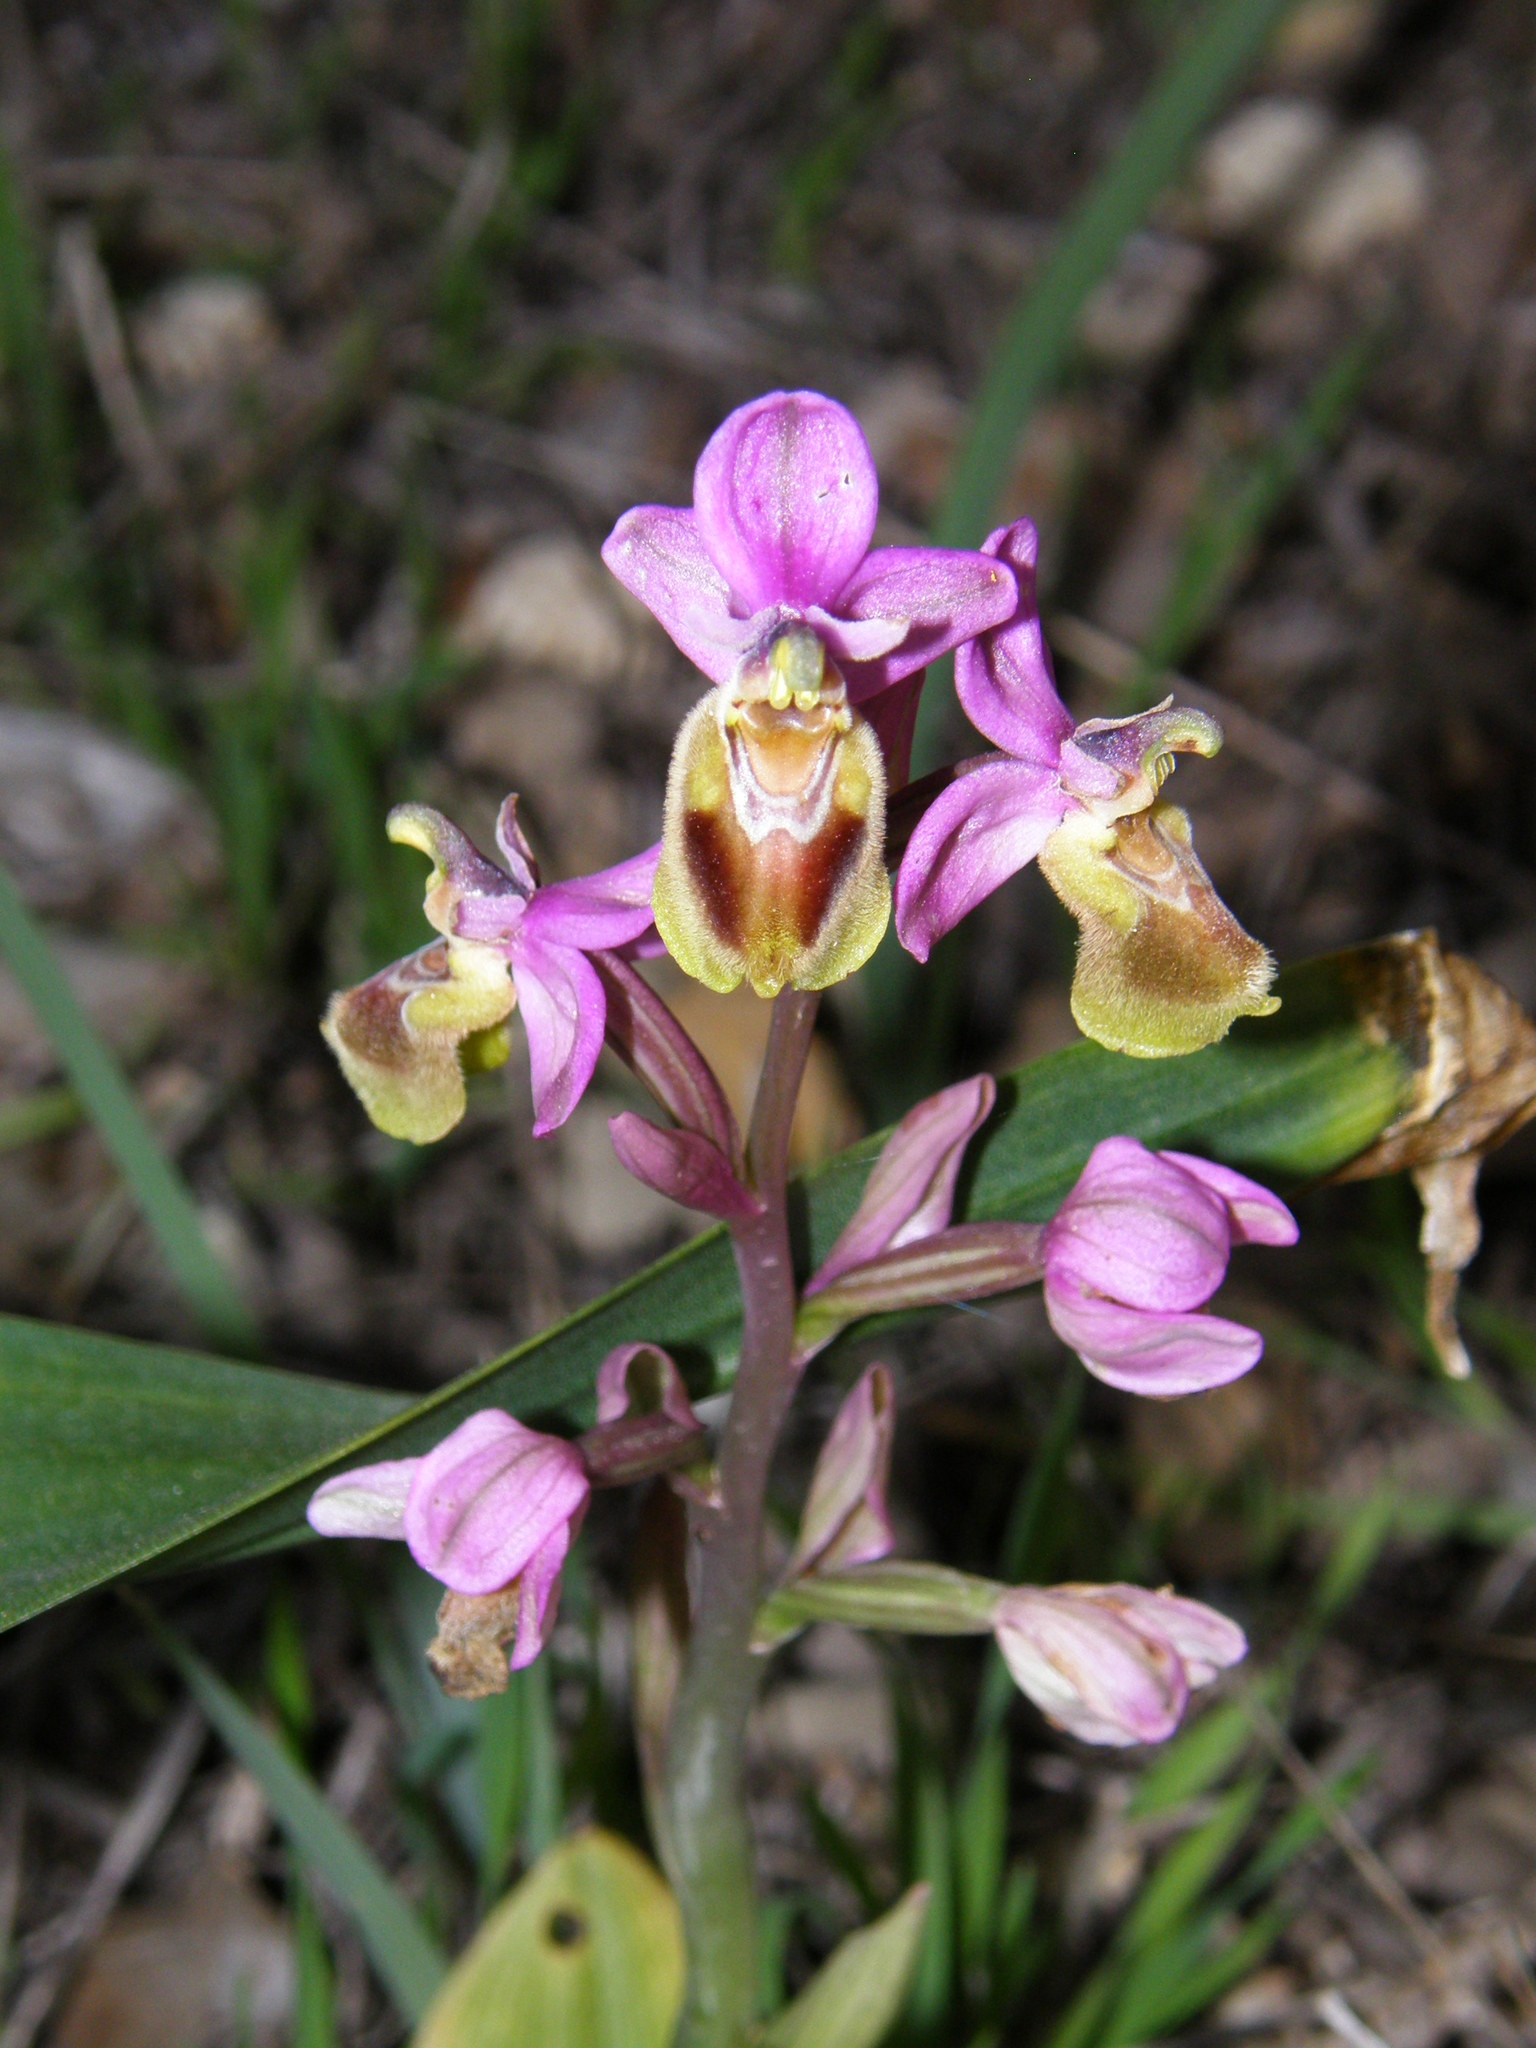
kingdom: Plantae
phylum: Tracheophyta
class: Liliopsida
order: Asparagales
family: Orchidaceae
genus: Ophrys
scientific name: Ophrys tenthredinifera
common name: Sawfly orchid
